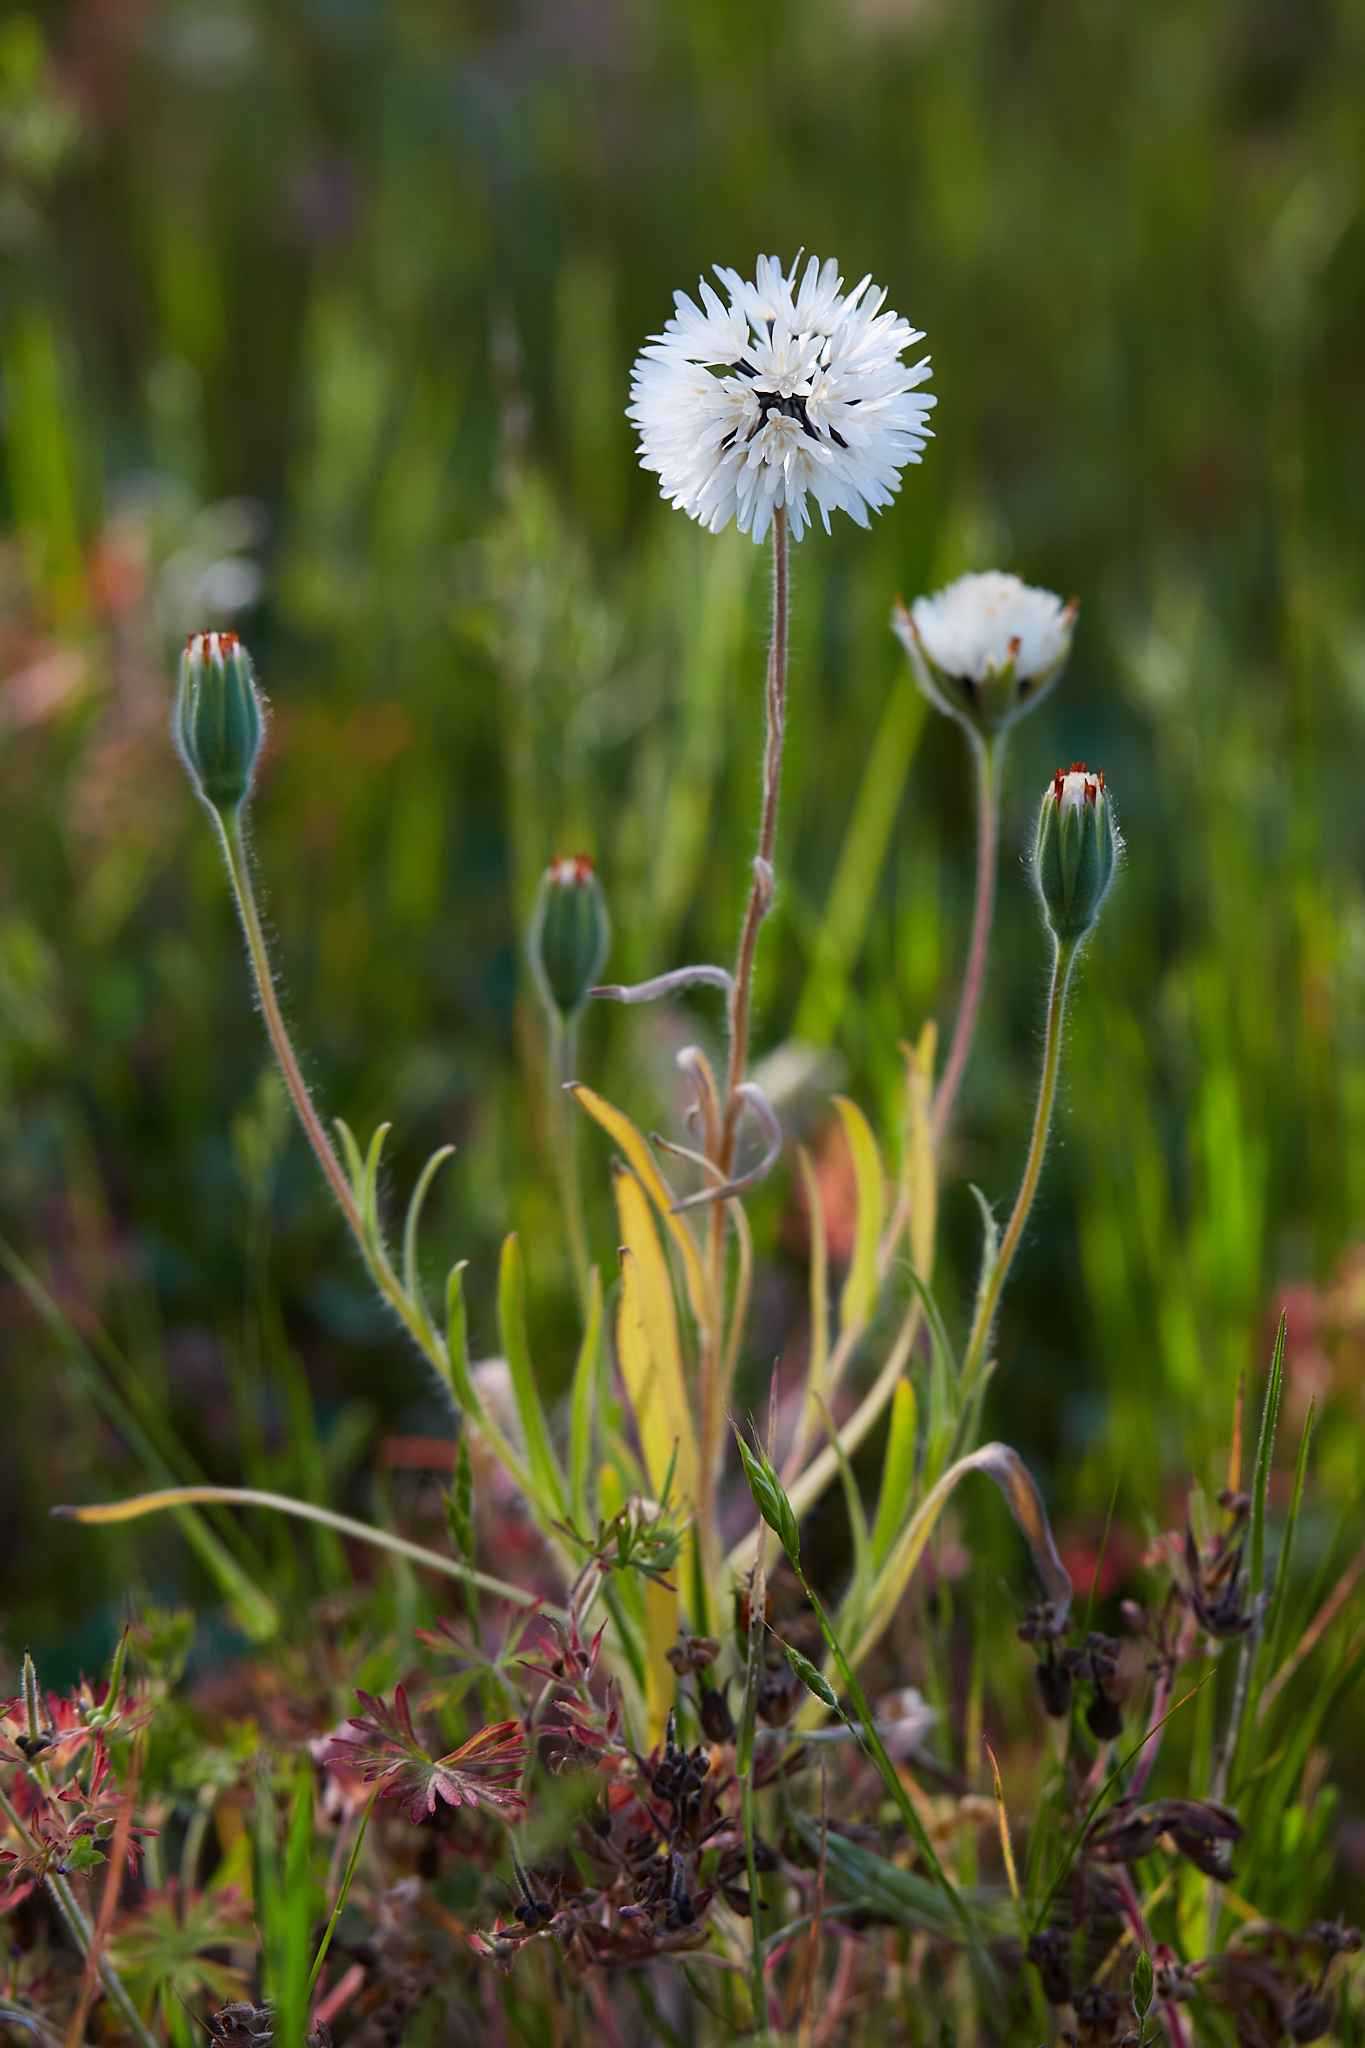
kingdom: Plantae
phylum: Tracheophyta
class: Magnoliopsida
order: Asterales
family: Asteraceae
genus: Achyrachaena
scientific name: Achyrachaena mollis
